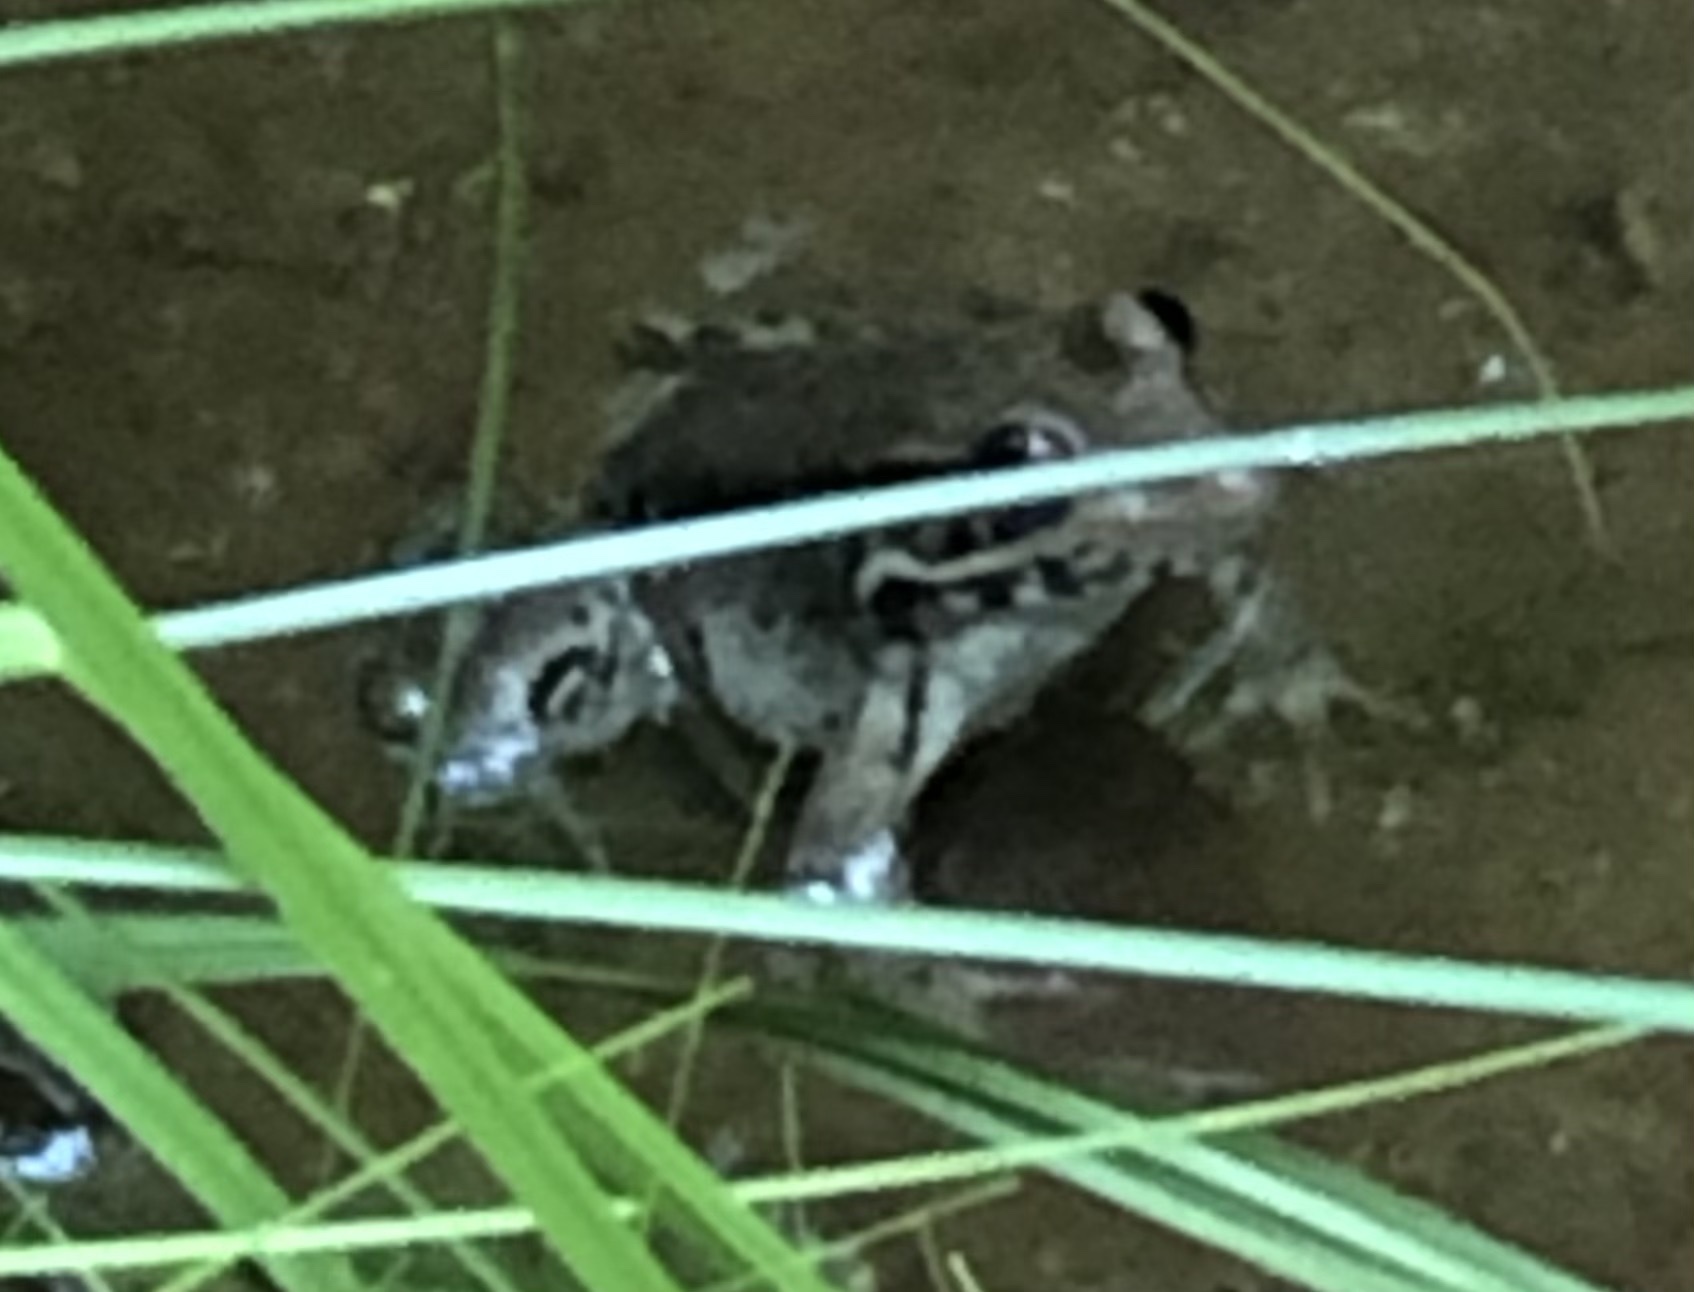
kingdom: Animalia
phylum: Chordata
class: Amphibia
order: Anura
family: Ranidae
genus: Lithobates
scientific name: Lithobates clamitans
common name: Green frog
